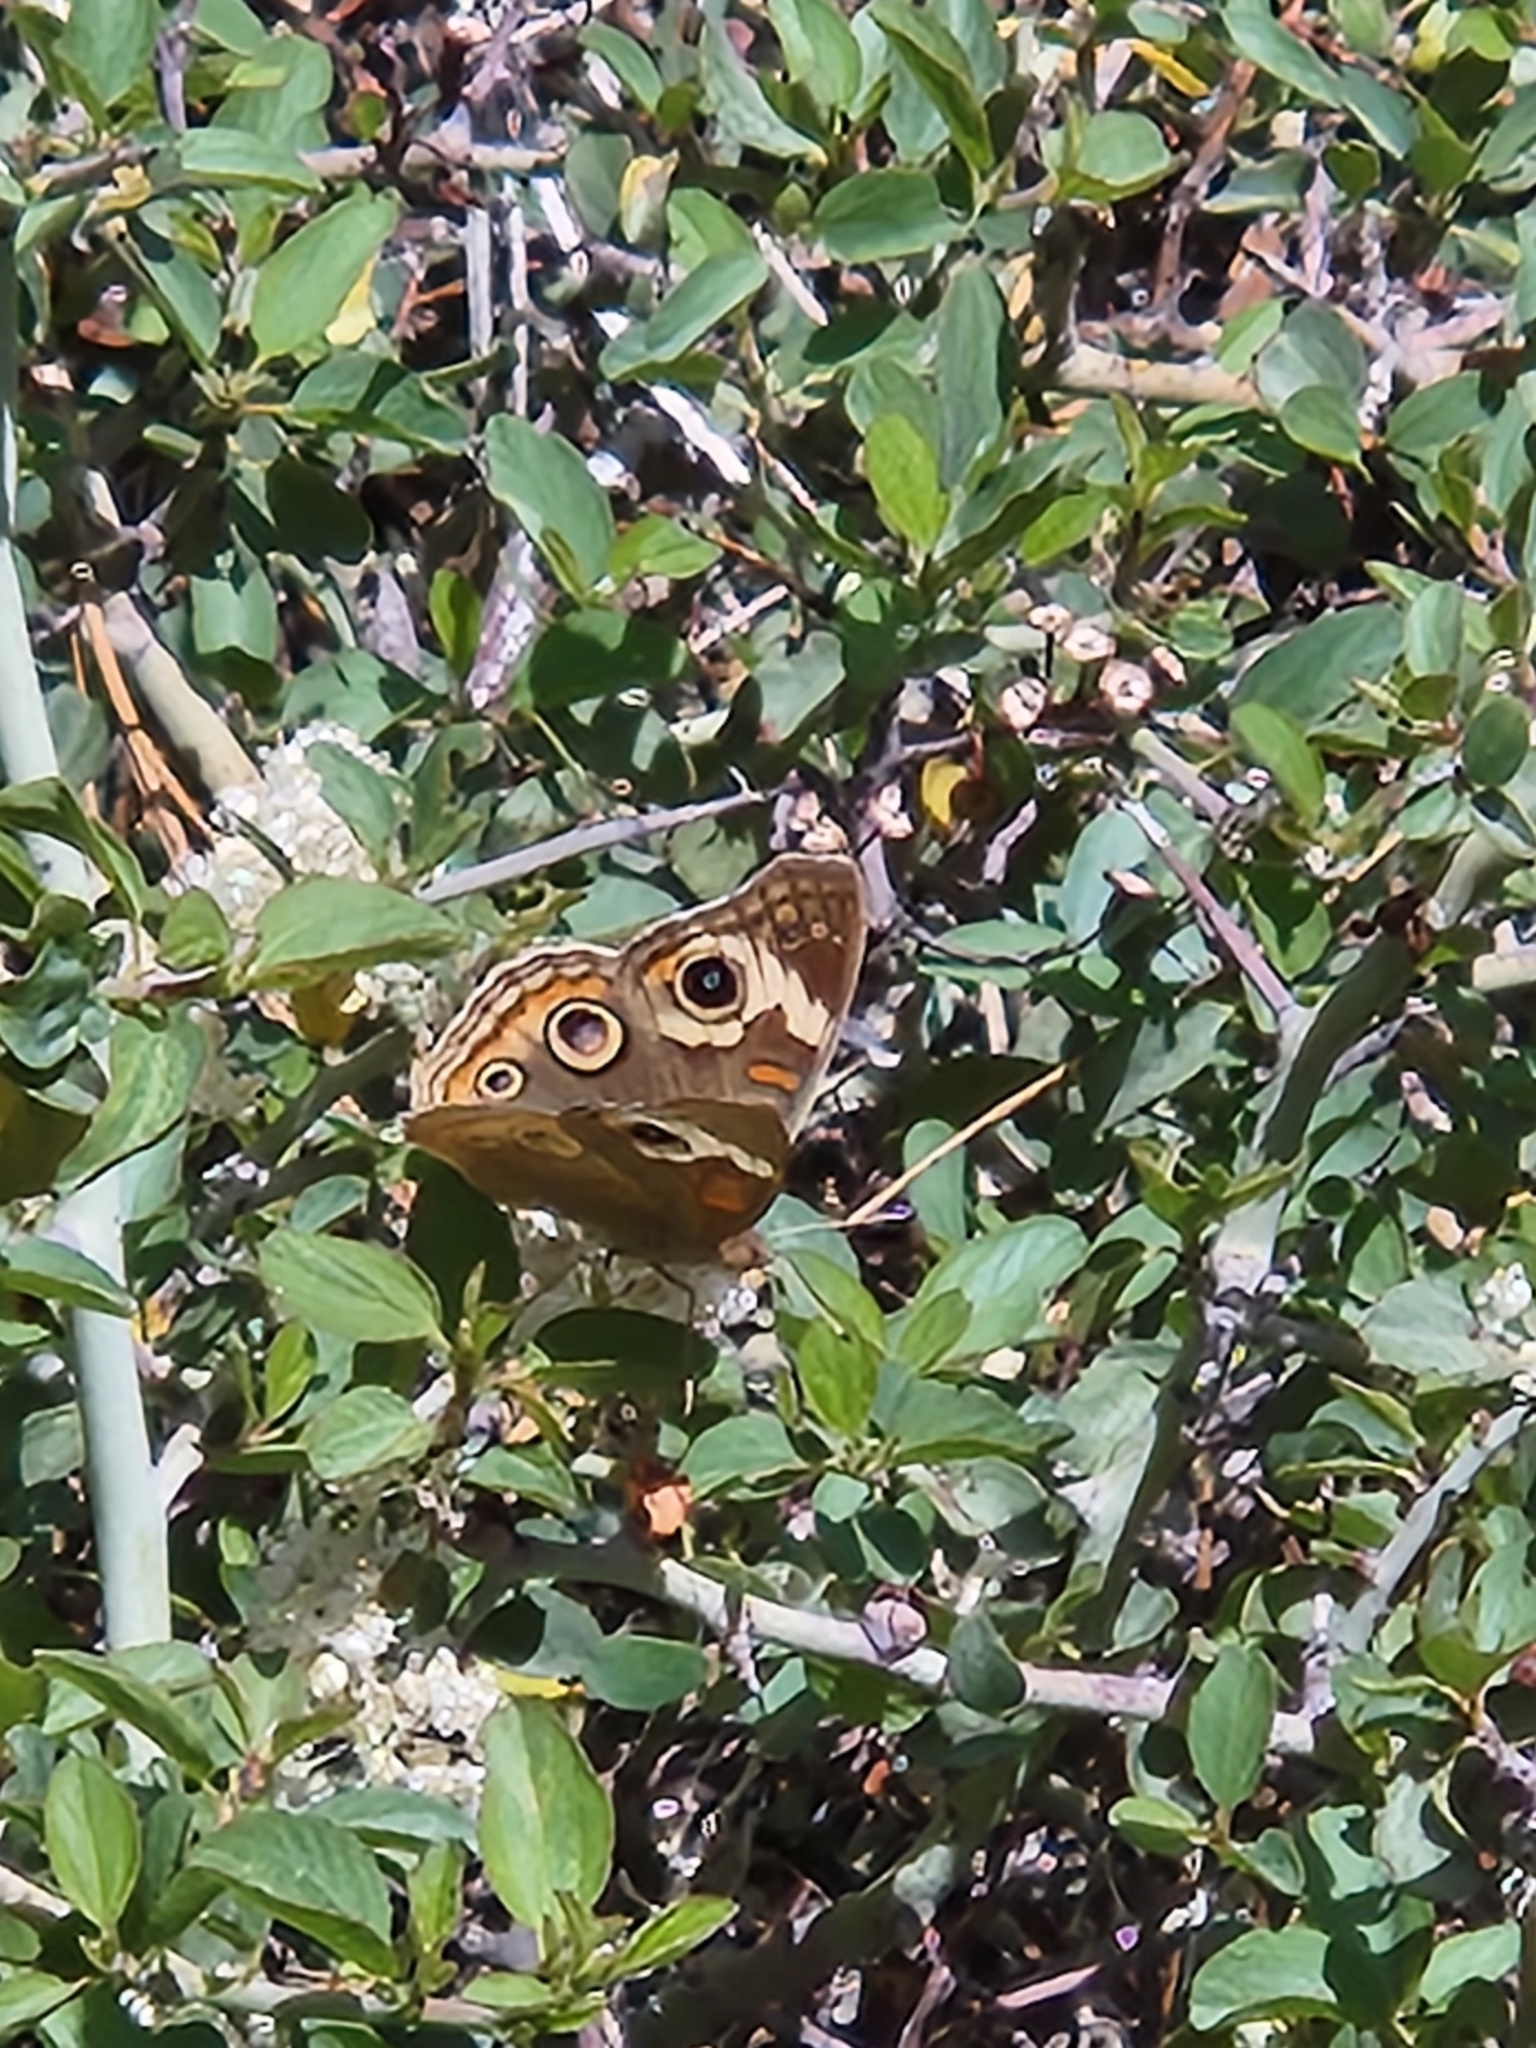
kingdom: Animalia
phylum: Arthropoda
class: Insecta
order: Lepidoptera
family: Nymphalidae
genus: Junonia
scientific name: Junonia grisea
